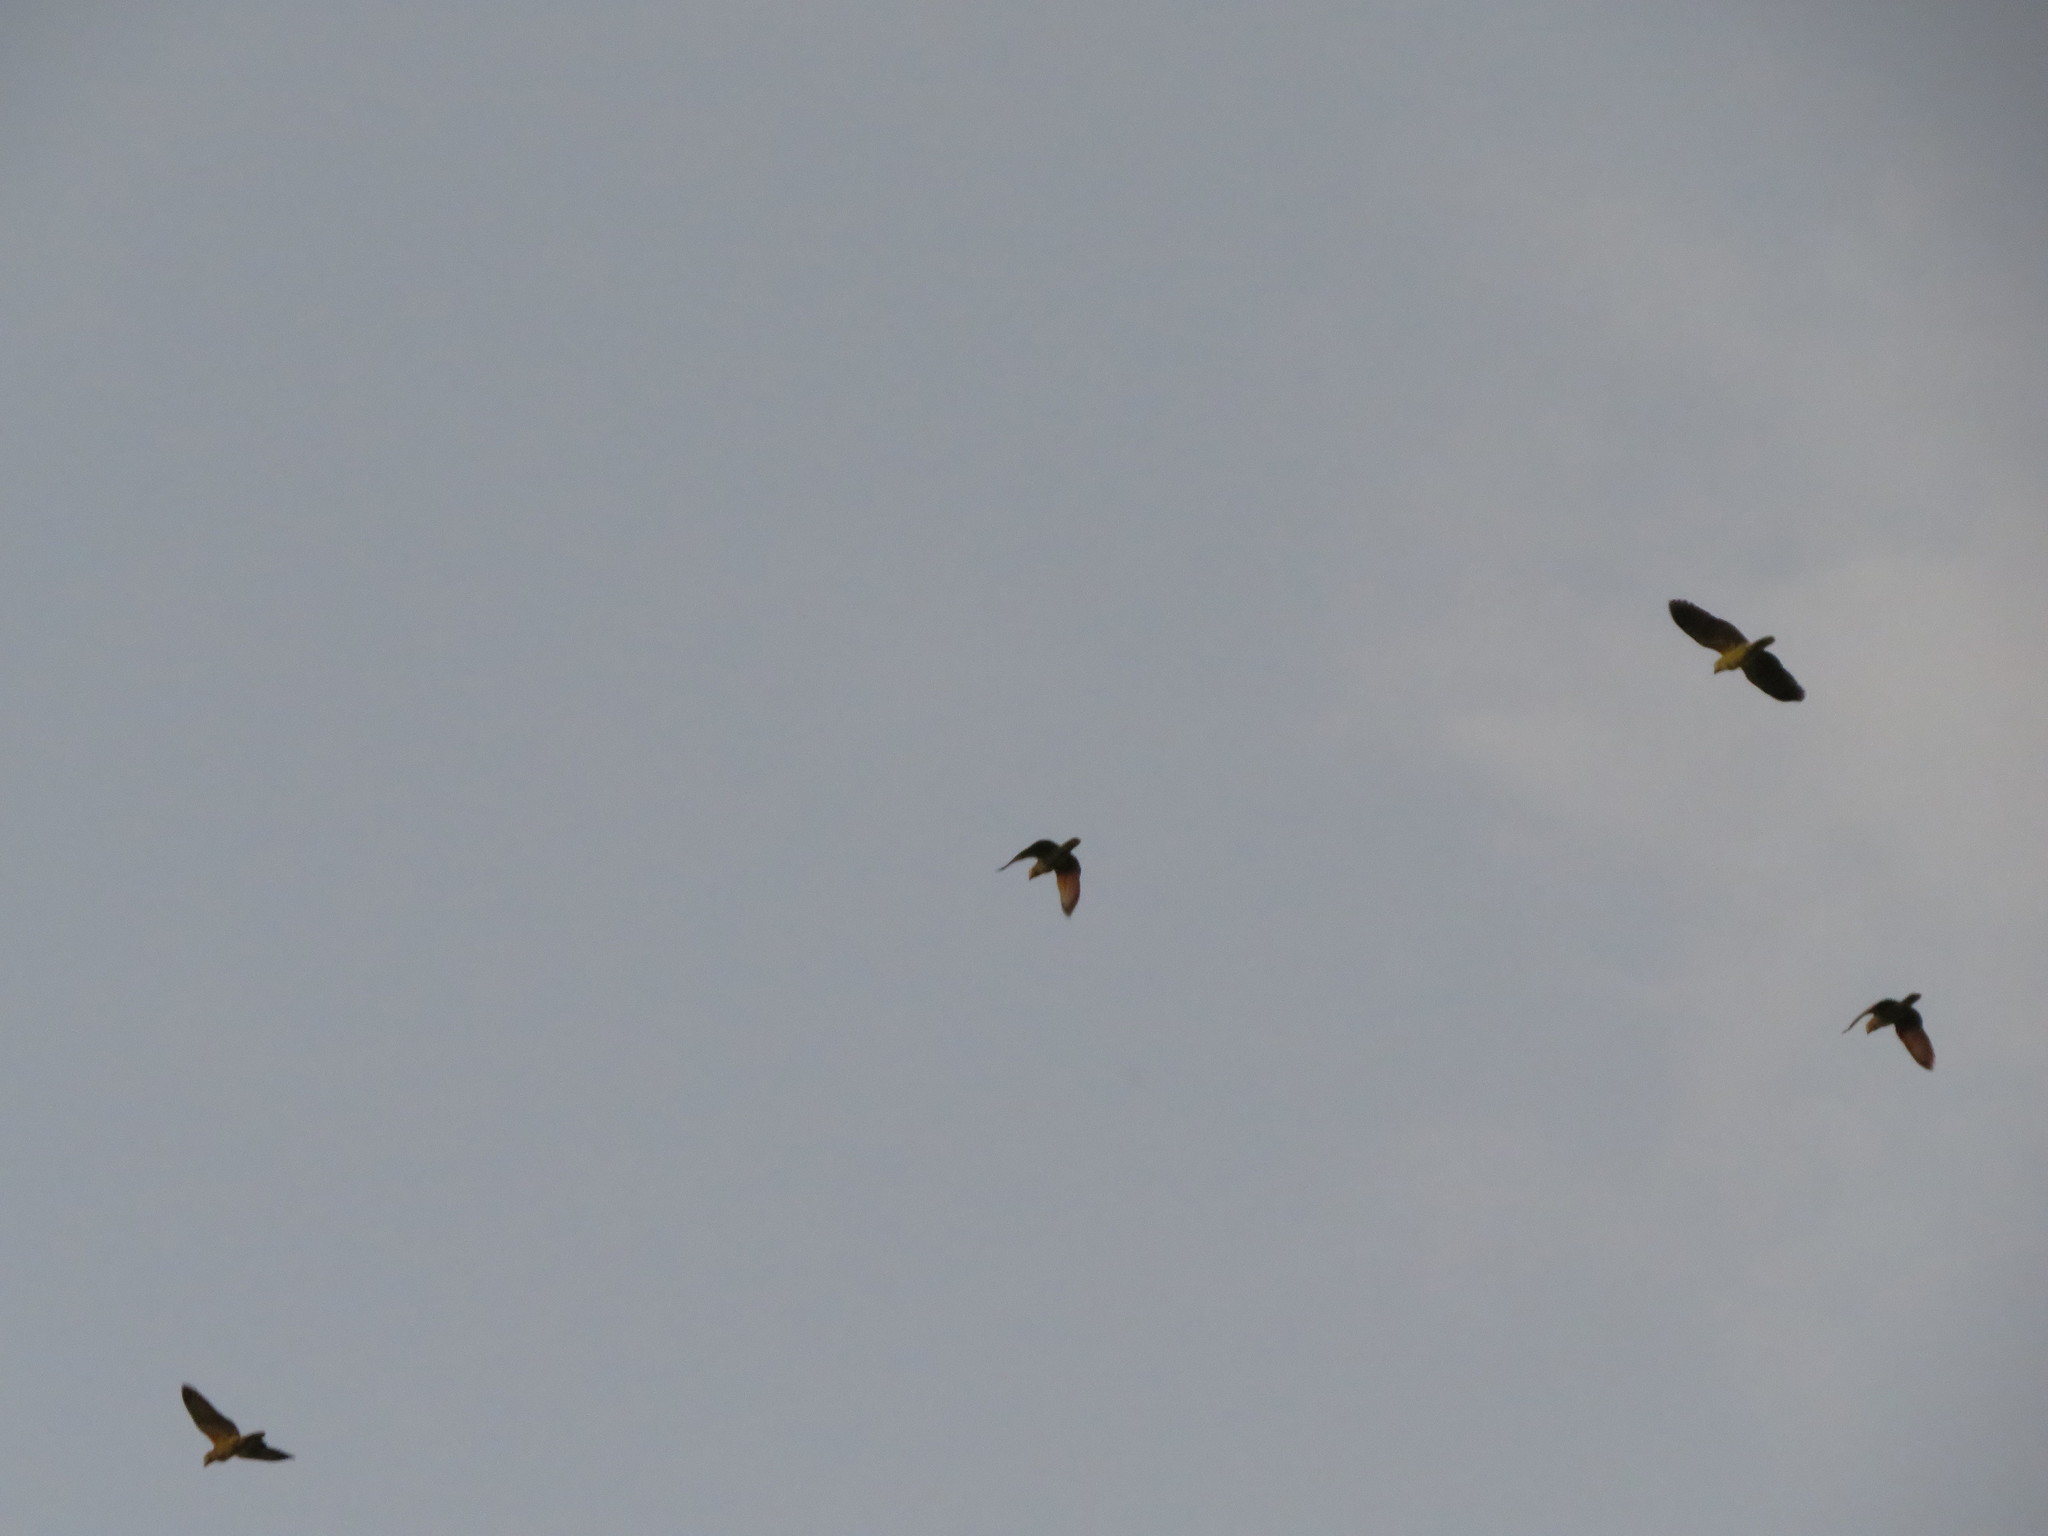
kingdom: Animalia
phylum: Chordata
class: Aves
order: Psittaciformes
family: Psittacidae
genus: Amazona
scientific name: Amazona aestiva
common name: Turquoise-fronted amazon
